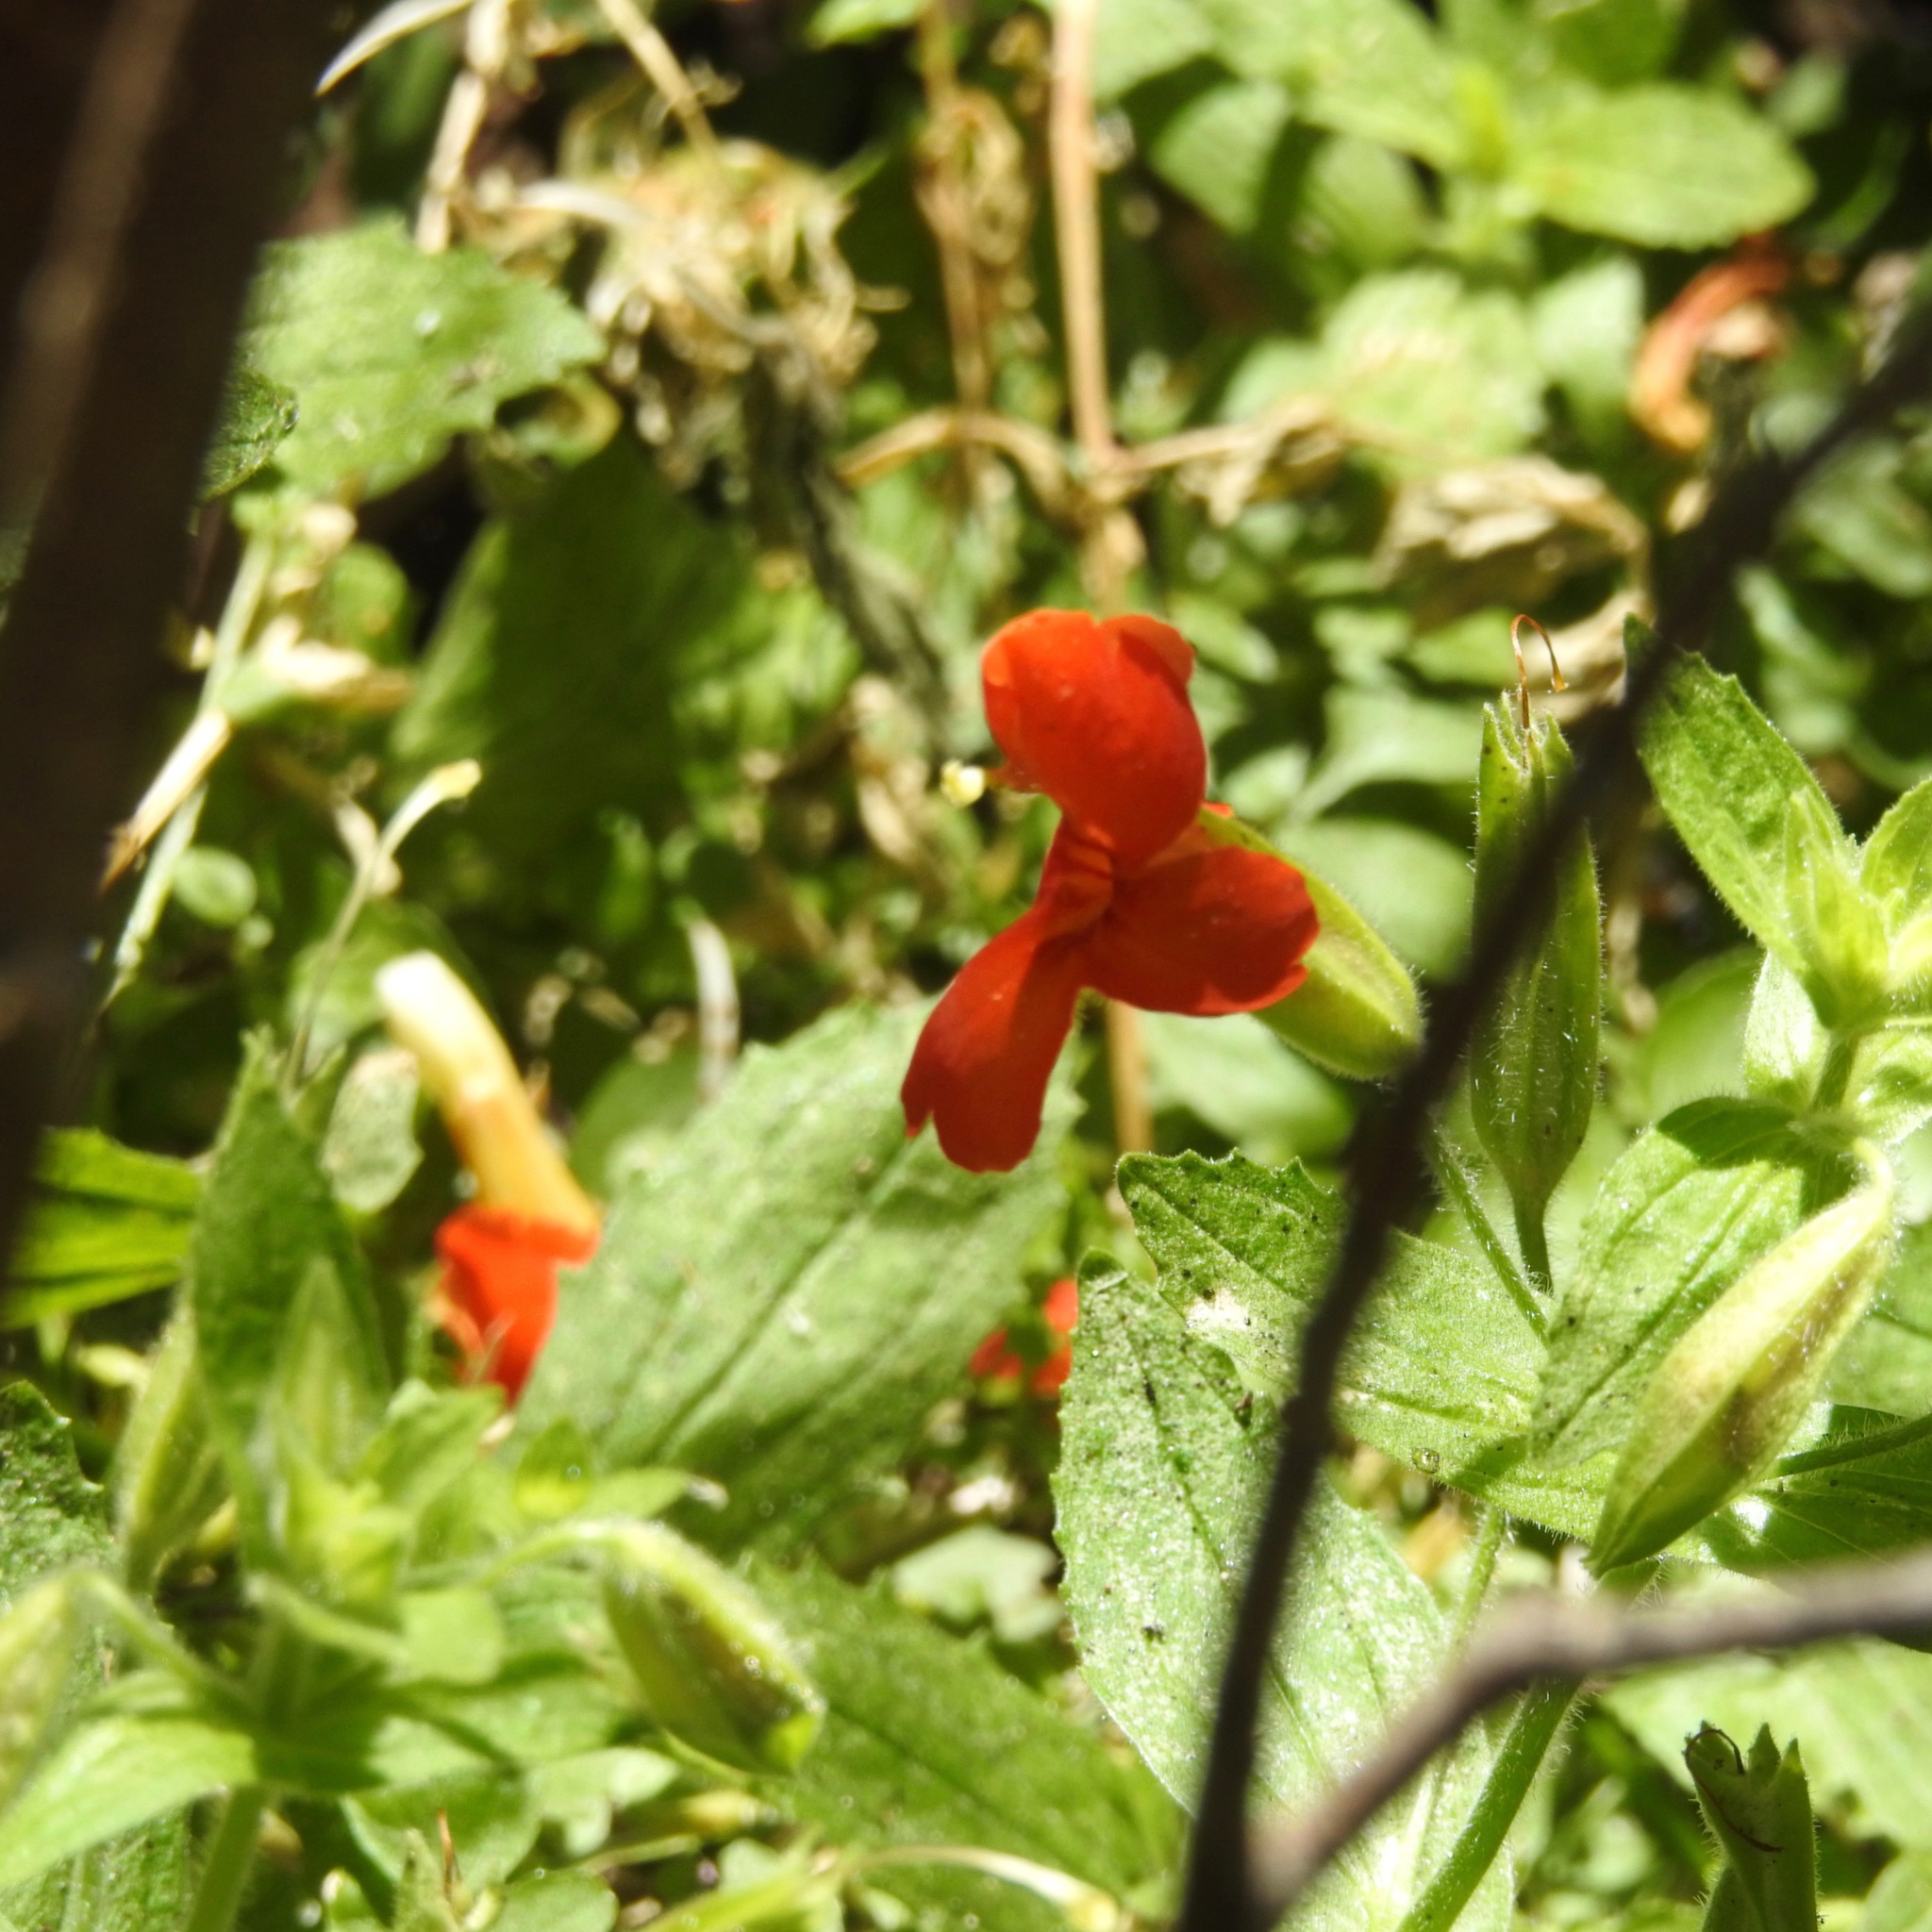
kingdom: Plantae
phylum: Tracheophyta
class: Magnoliopsida
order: Lamiales
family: Phrymaceae
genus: Erythranthe
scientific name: Erythranthe cardinalis
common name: Scarlet monkey-flower
